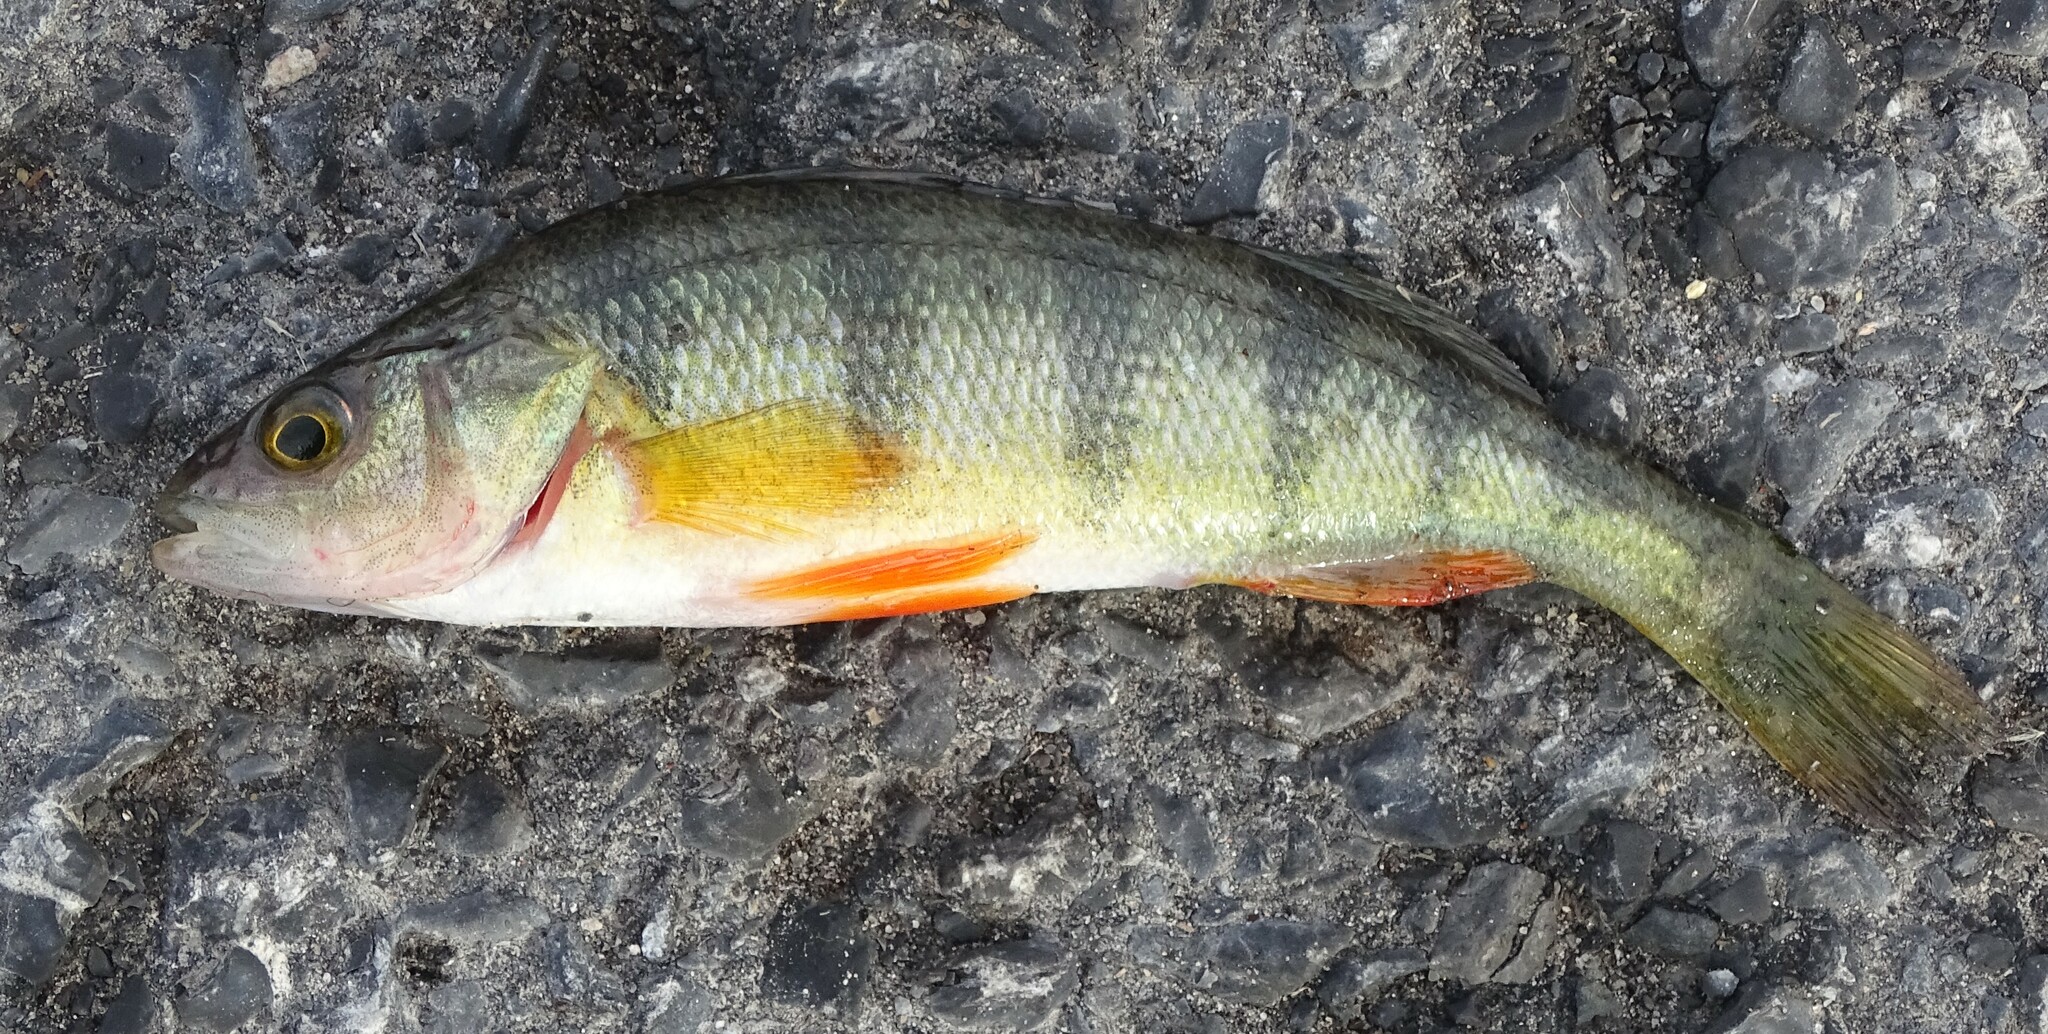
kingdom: Animalia
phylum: Chordata
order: Perciformes
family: Percidae
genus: Perca
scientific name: Perca flavescens
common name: Yellow perch
